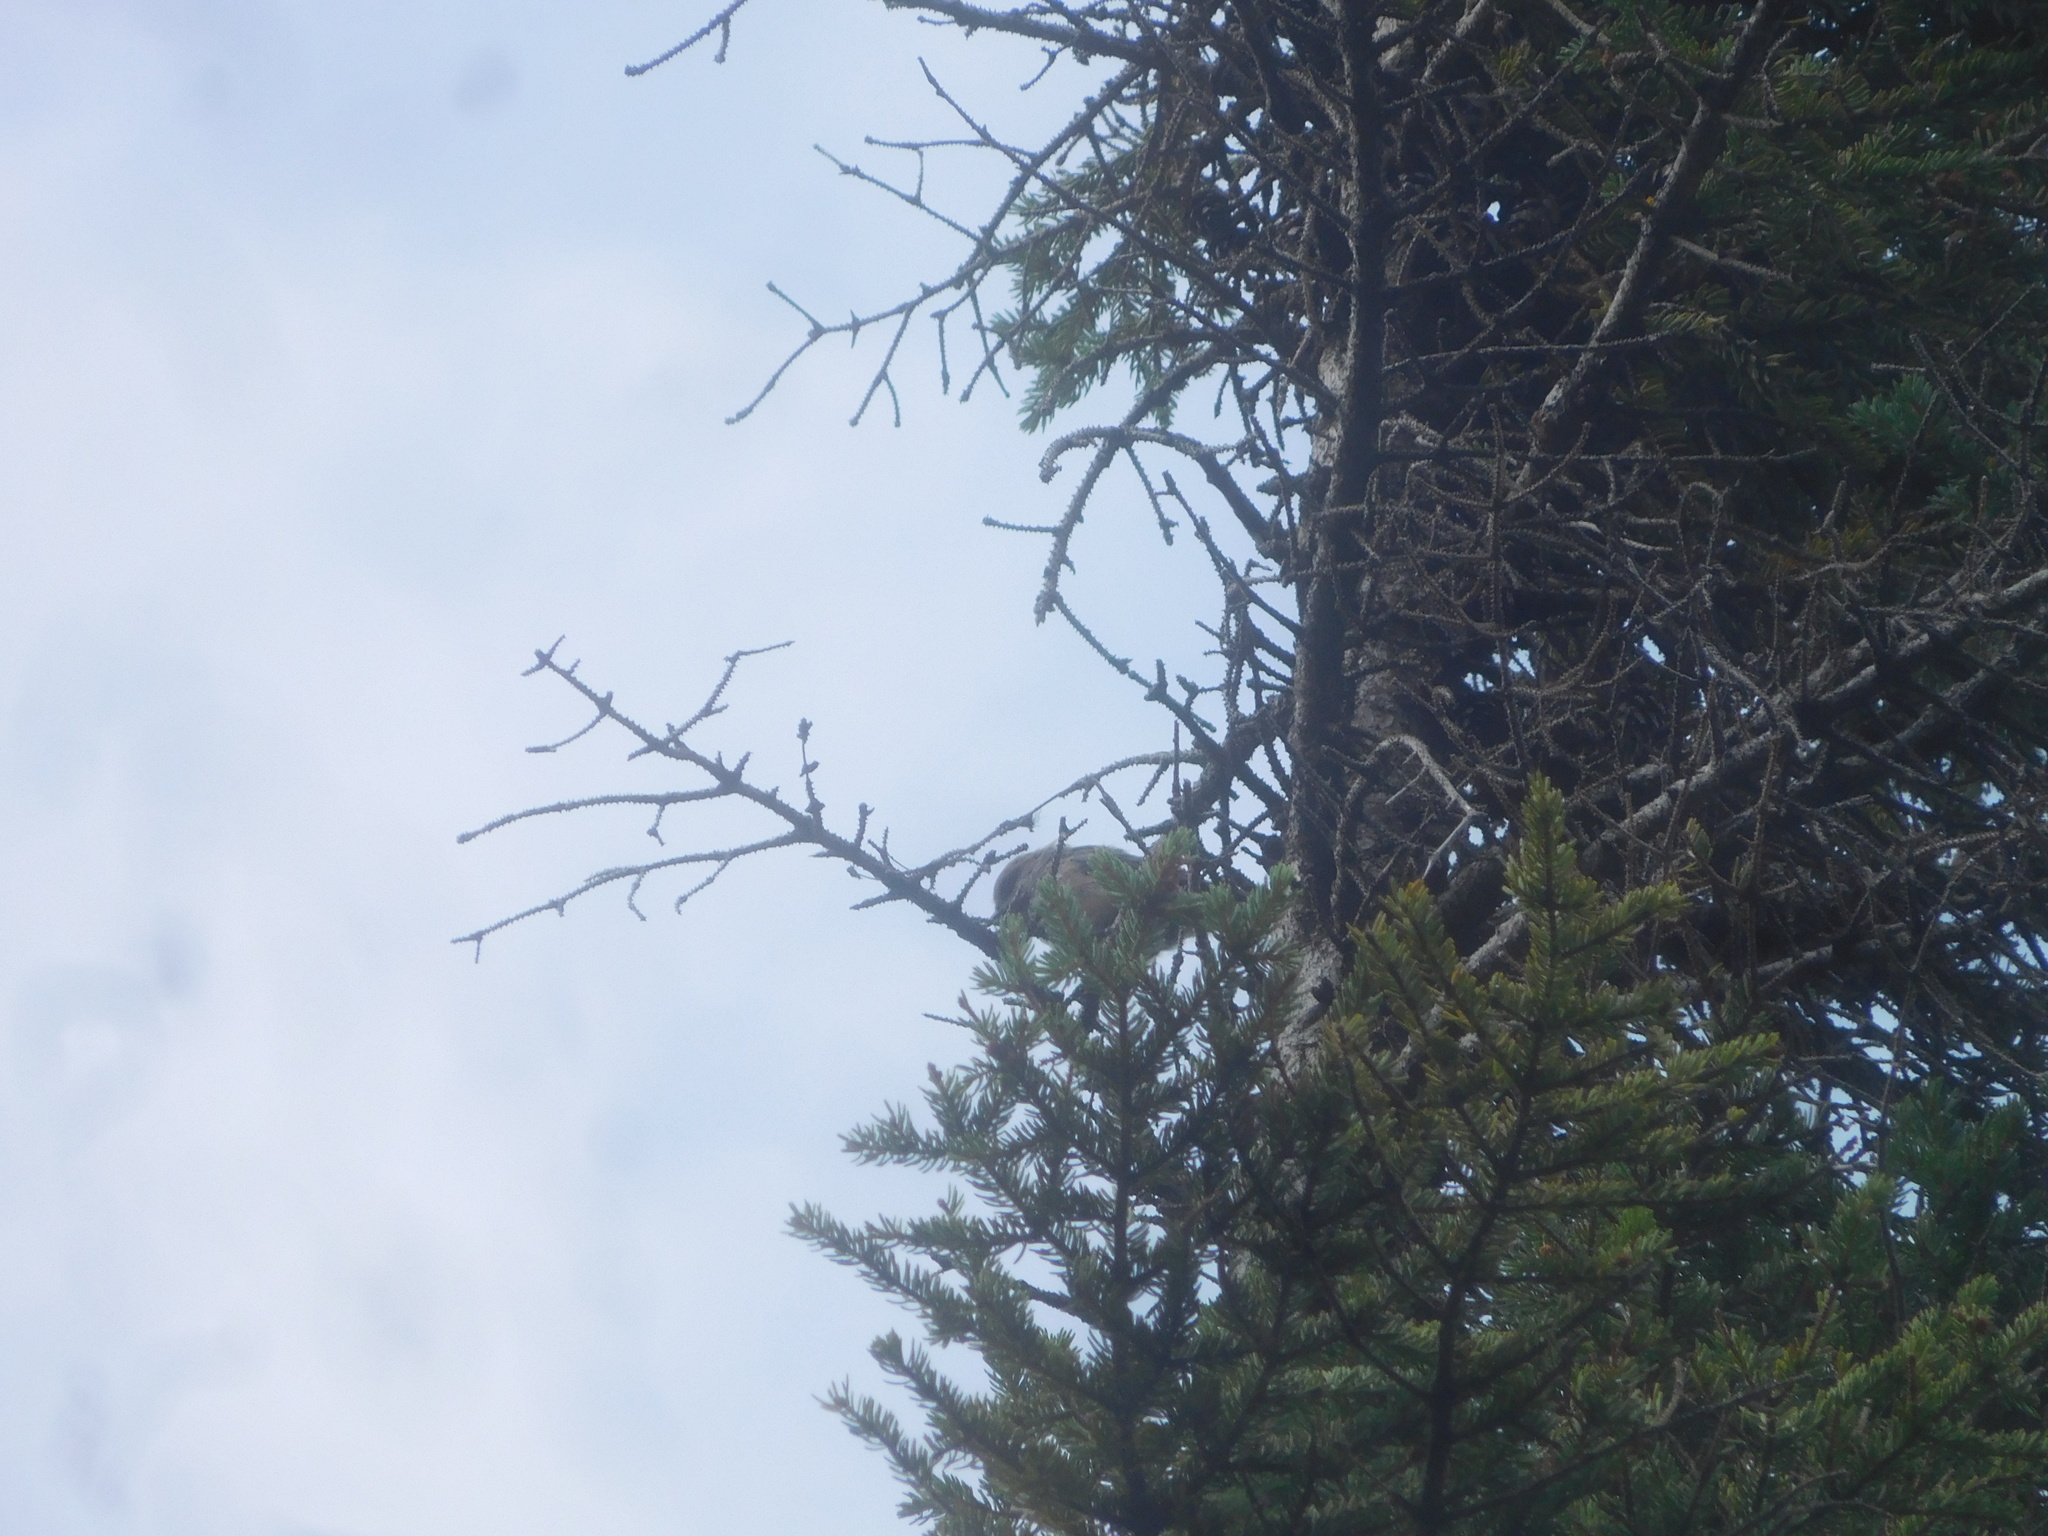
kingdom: Animalia
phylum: Chordata
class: Aves
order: Passeriformes
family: Paridae
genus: Poecile
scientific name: Poecile hudsonicus
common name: Boreal chickadee
